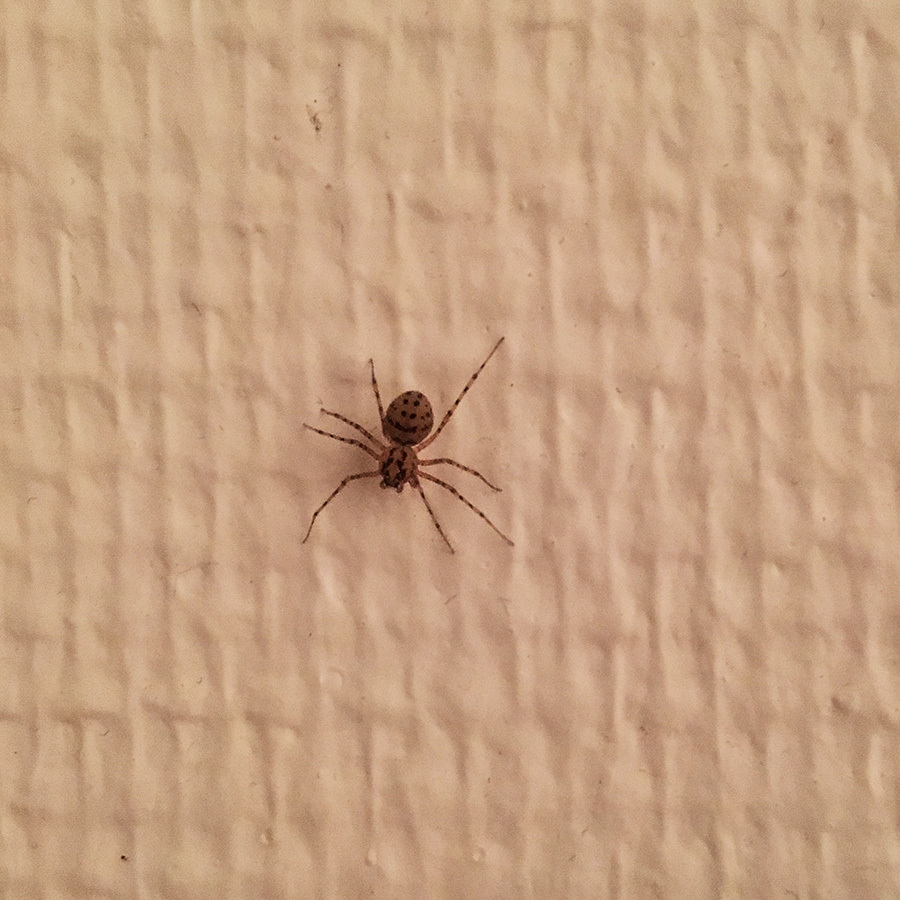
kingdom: Animalia
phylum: Arthropoda
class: Arachnida
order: Araneae
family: Scytodidae
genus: Scytodes
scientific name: Scytodes thoracica
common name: Spitting spider
